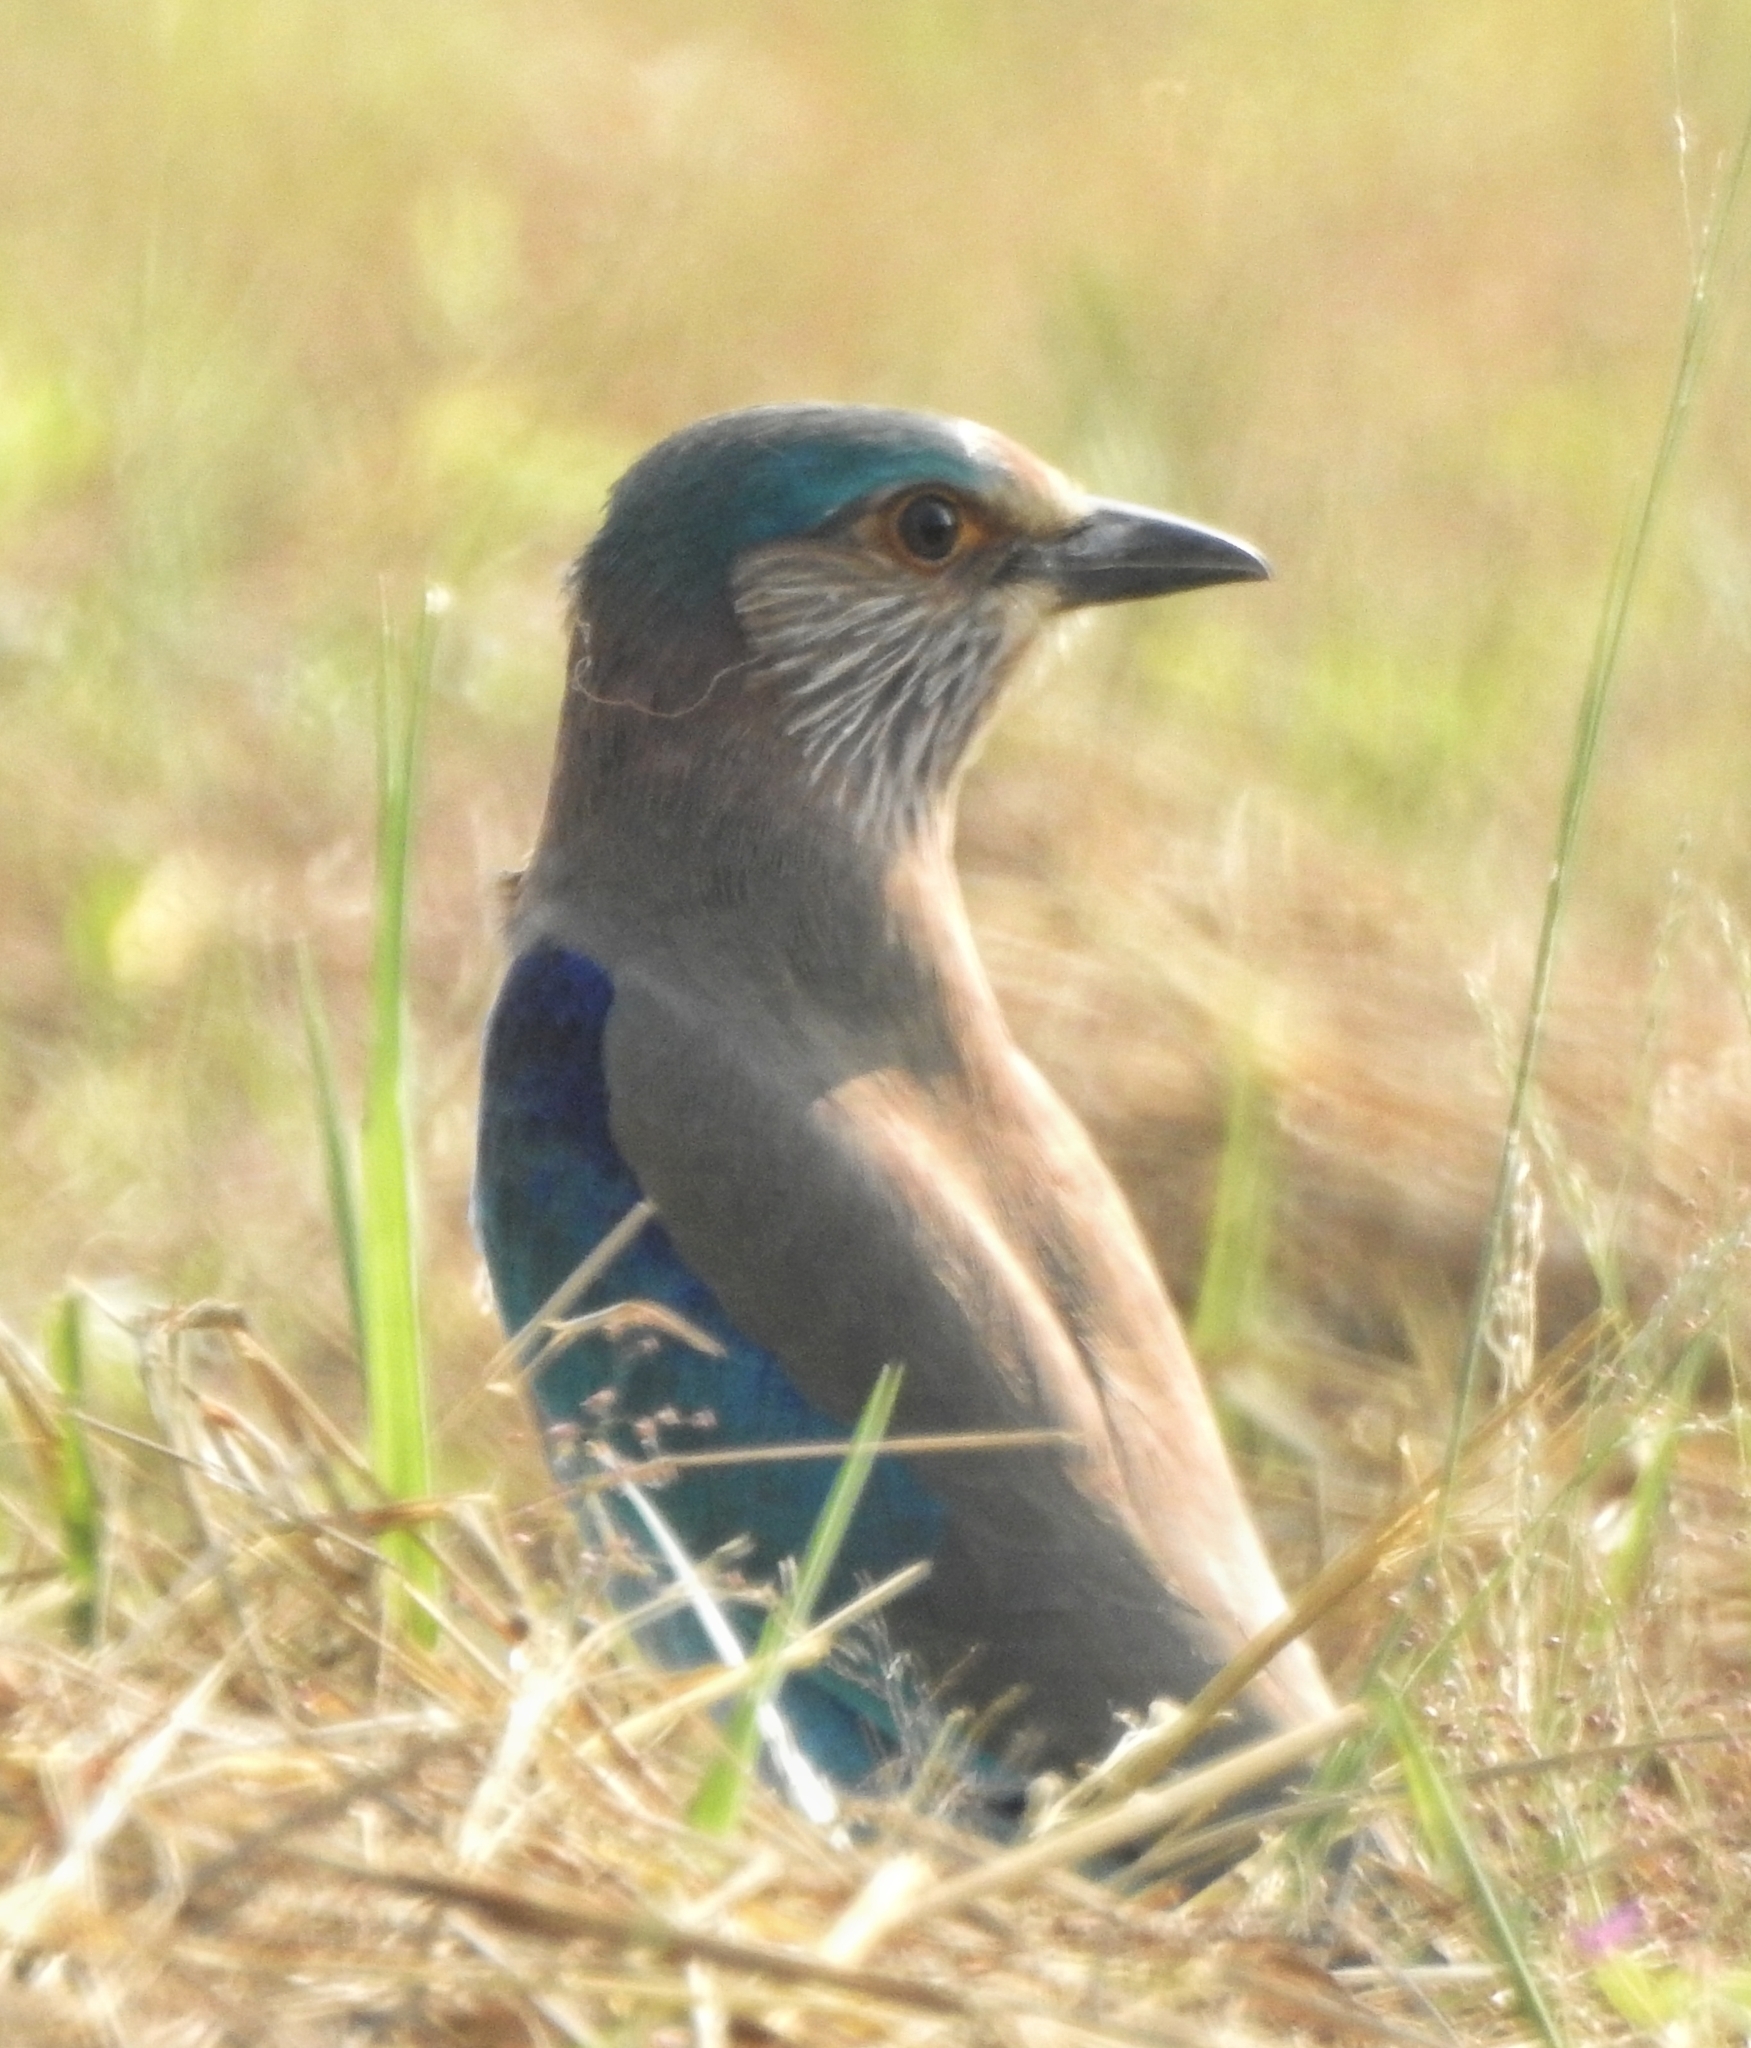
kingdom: Animalia
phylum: Chordata
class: Aves
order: Coraciiformes
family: Coraciidae
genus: Coracias
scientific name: Coracias benghalensis
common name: Indian roller
